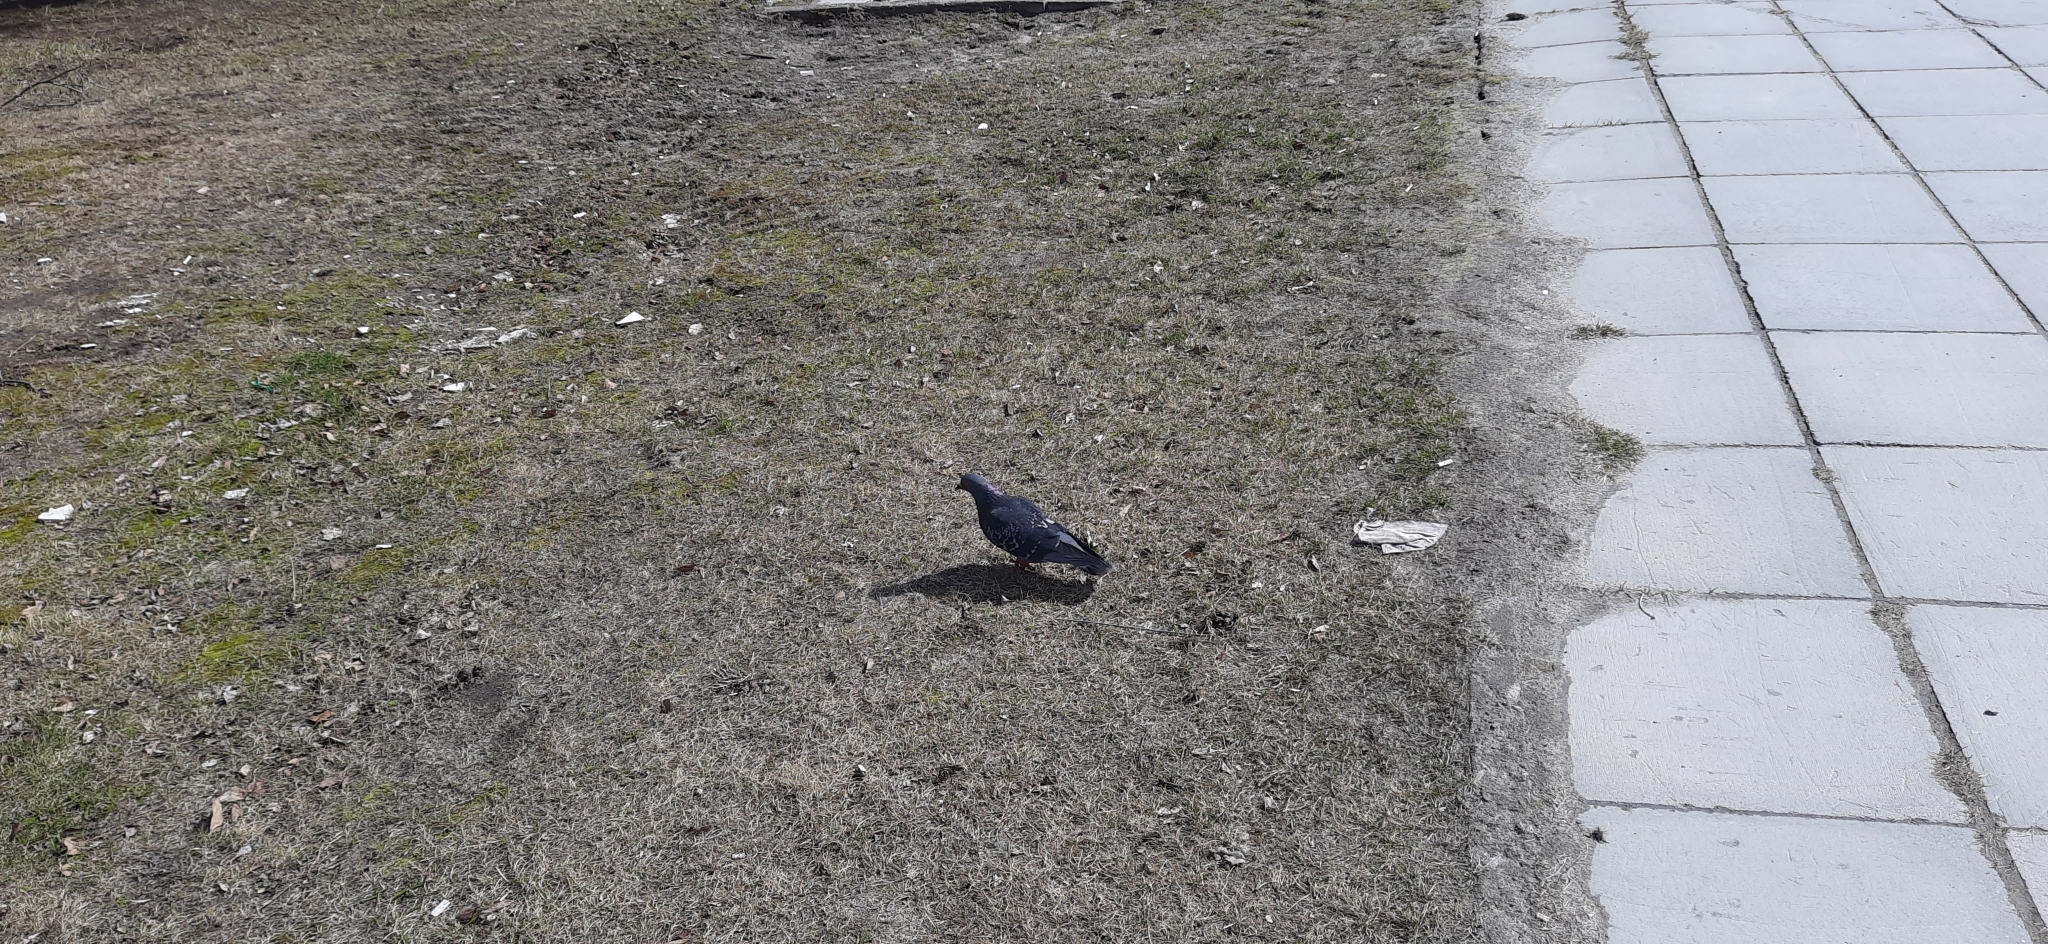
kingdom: Animalia
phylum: Chordata
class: Aves
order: Columbiformes
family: Columbidae
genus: Columba
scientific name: Columba livia
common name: Rock pigeon
